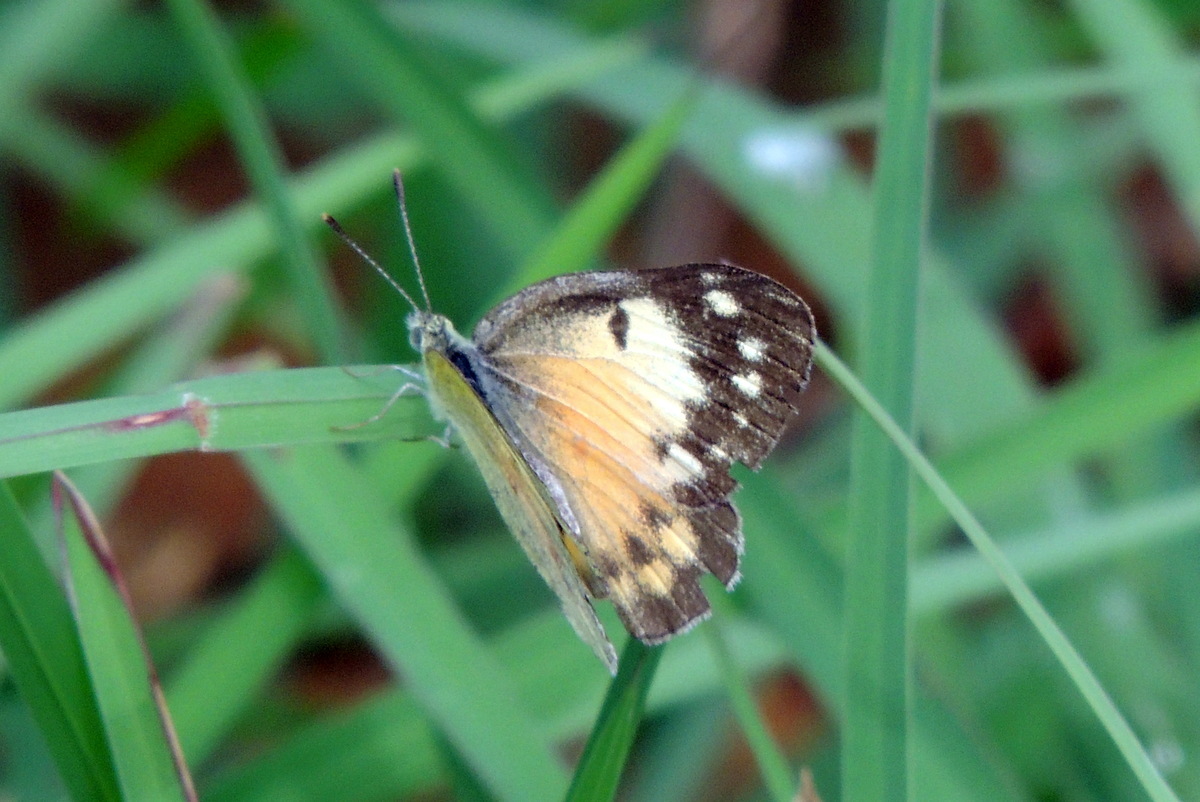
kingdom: Animalia
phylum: Arthropoda
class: Insecta
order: Lepidoptera
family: Pieridae
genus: Colotis
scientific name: Colotis amata
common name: Small salmon arab
